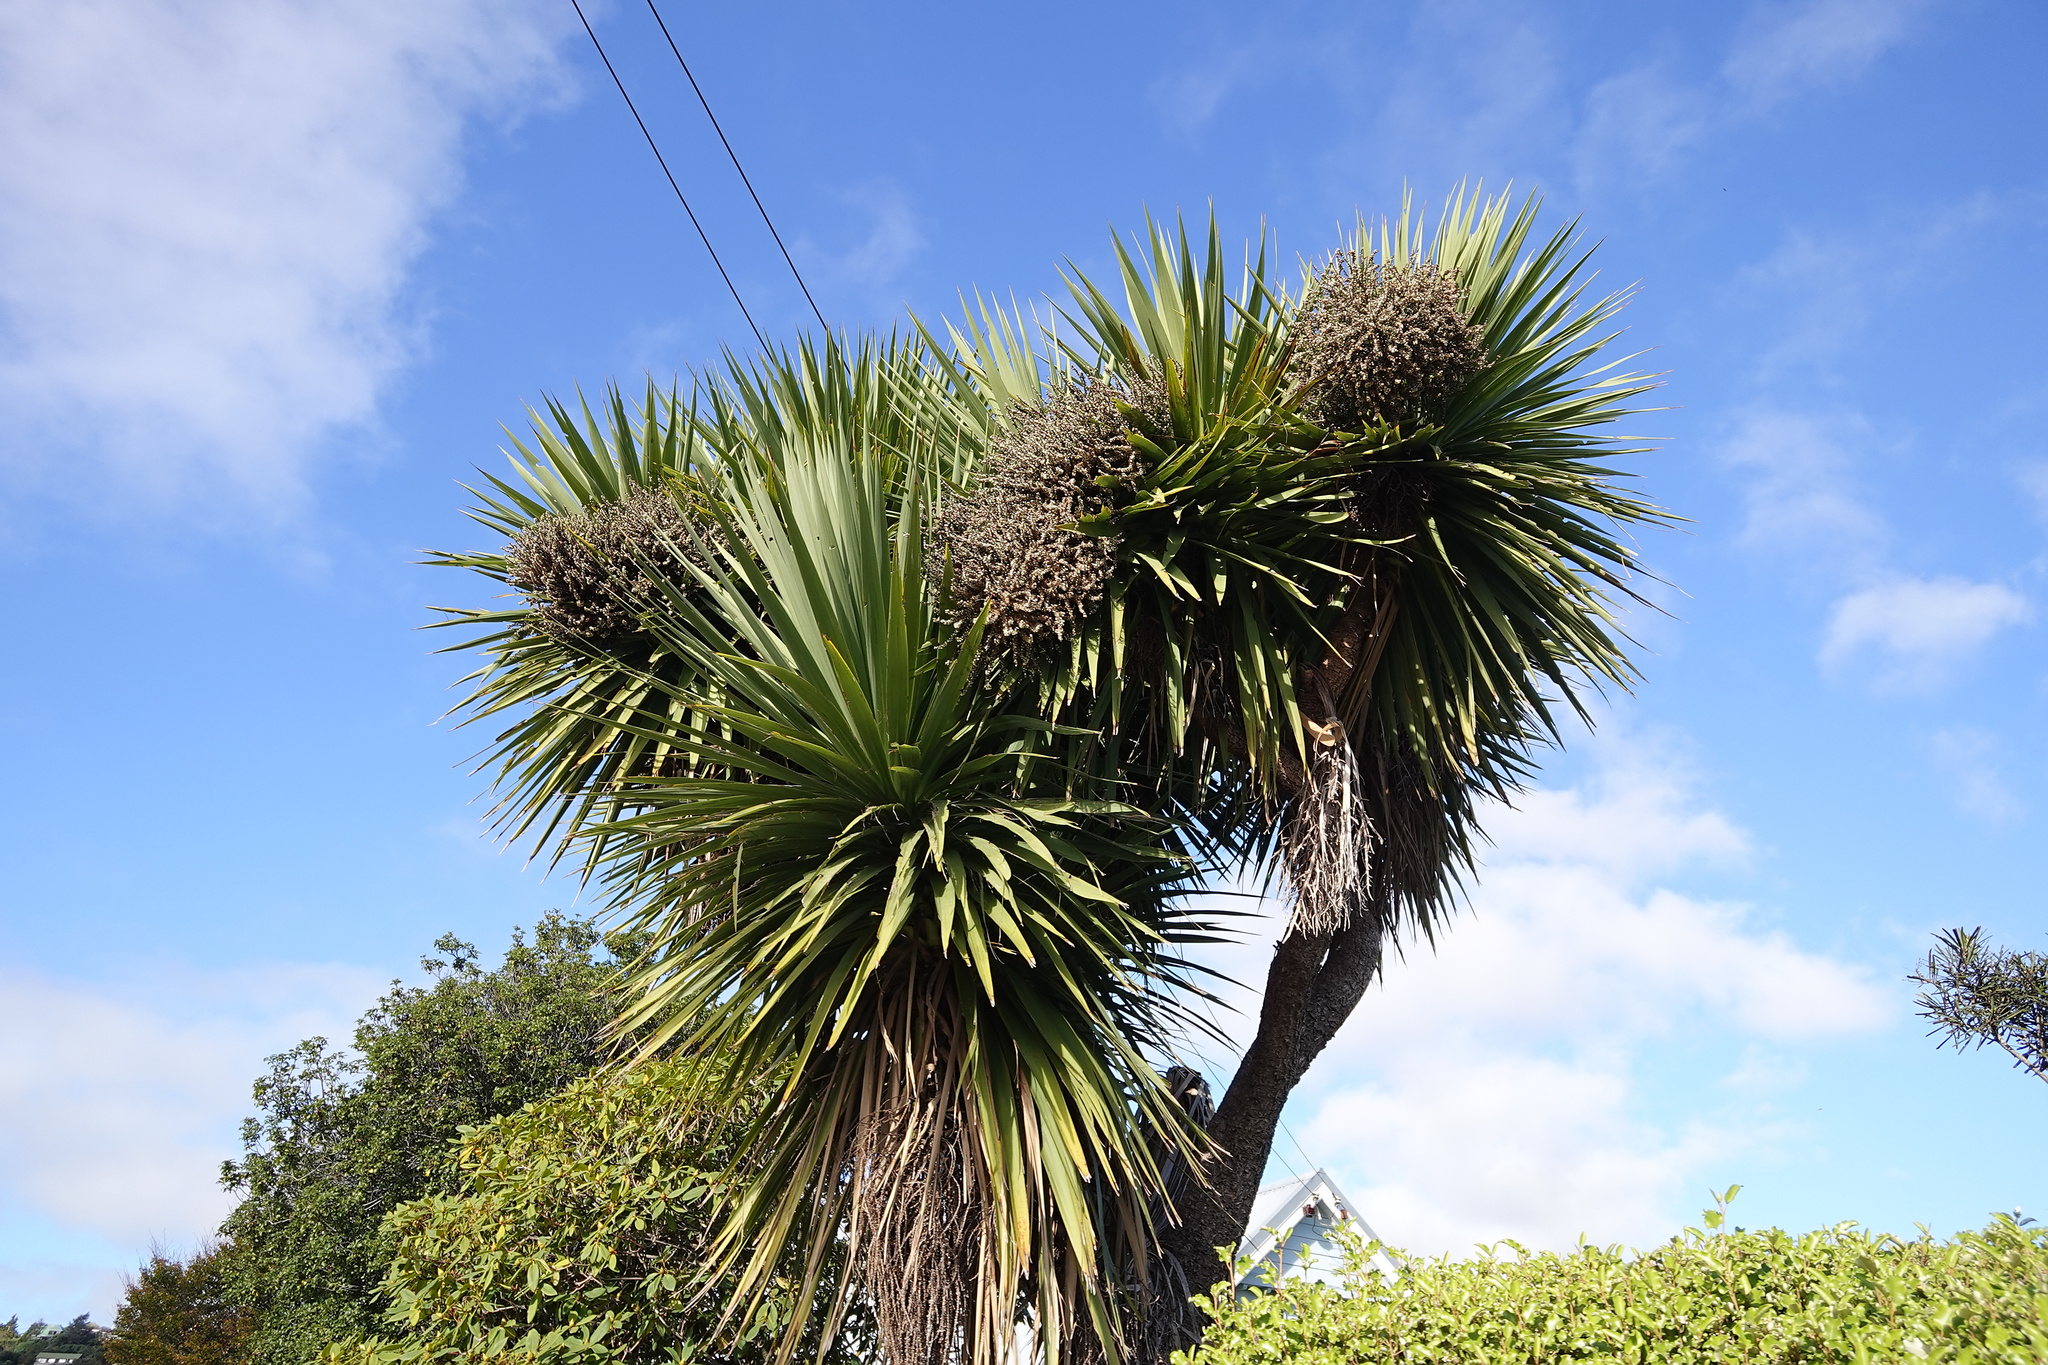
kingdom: Plantae
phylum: Tracheophyta
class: Liliopsida
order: Asparagales
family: Asparagaceae
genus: Cordyline
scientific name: Cordyline australis
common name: Cabbage-palm
